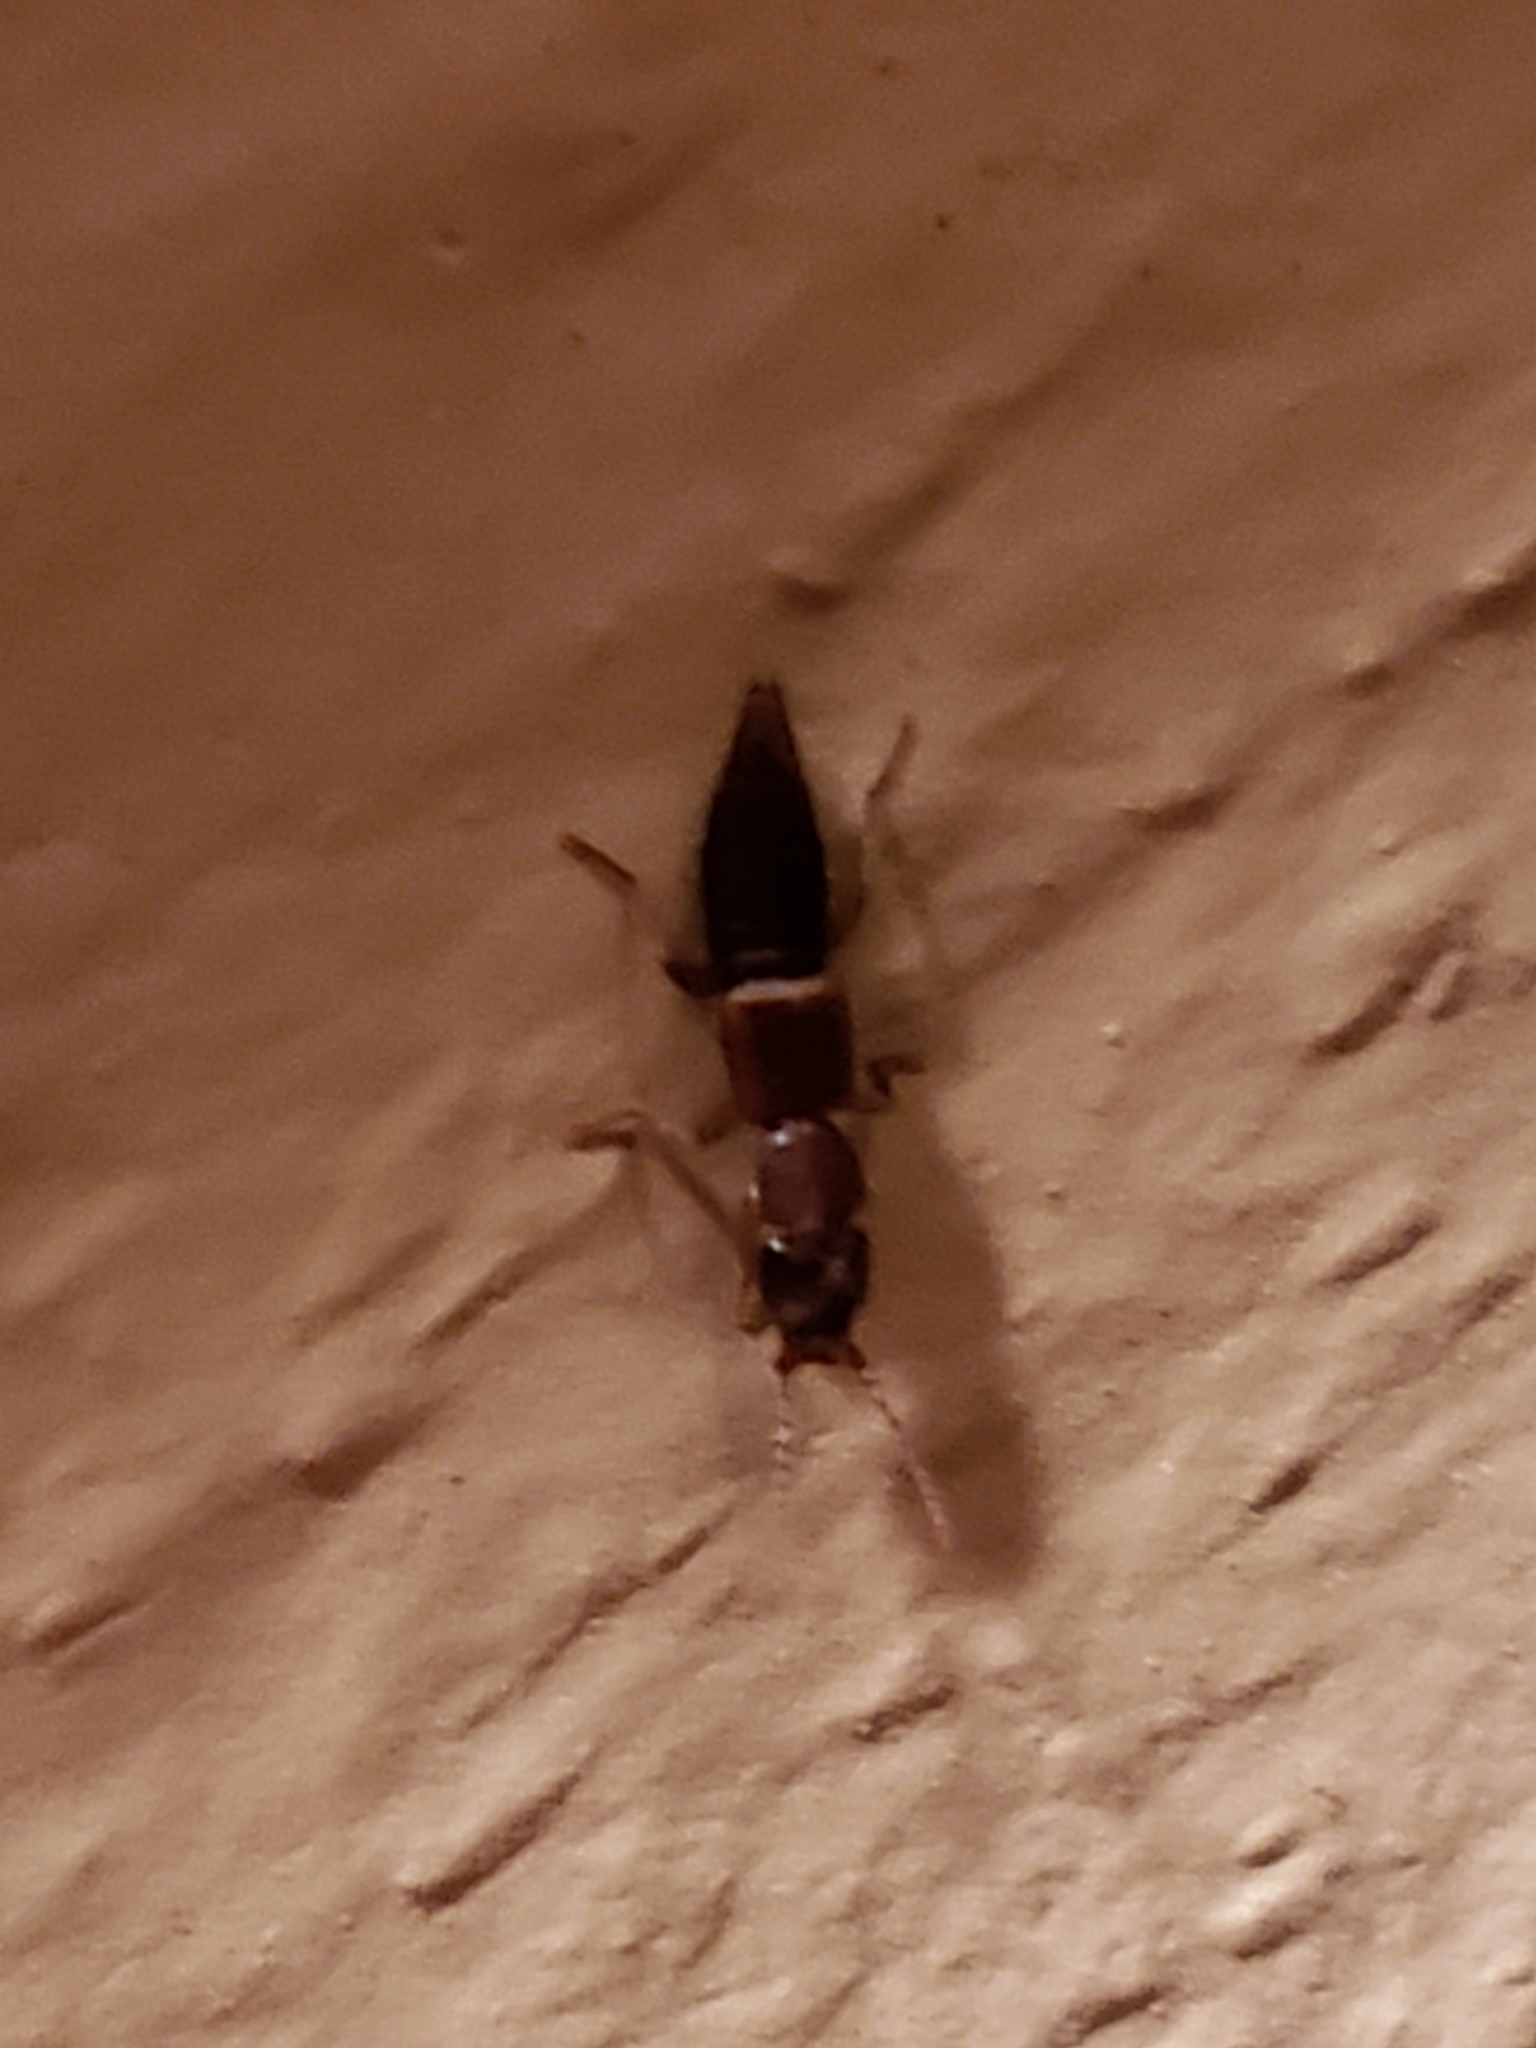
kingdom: Animalia
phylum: Arthropoda
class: Insecta
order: Coleoptera
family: Staphylinidae
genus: Achenomorphus
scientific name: Achenomorphus corticinus
